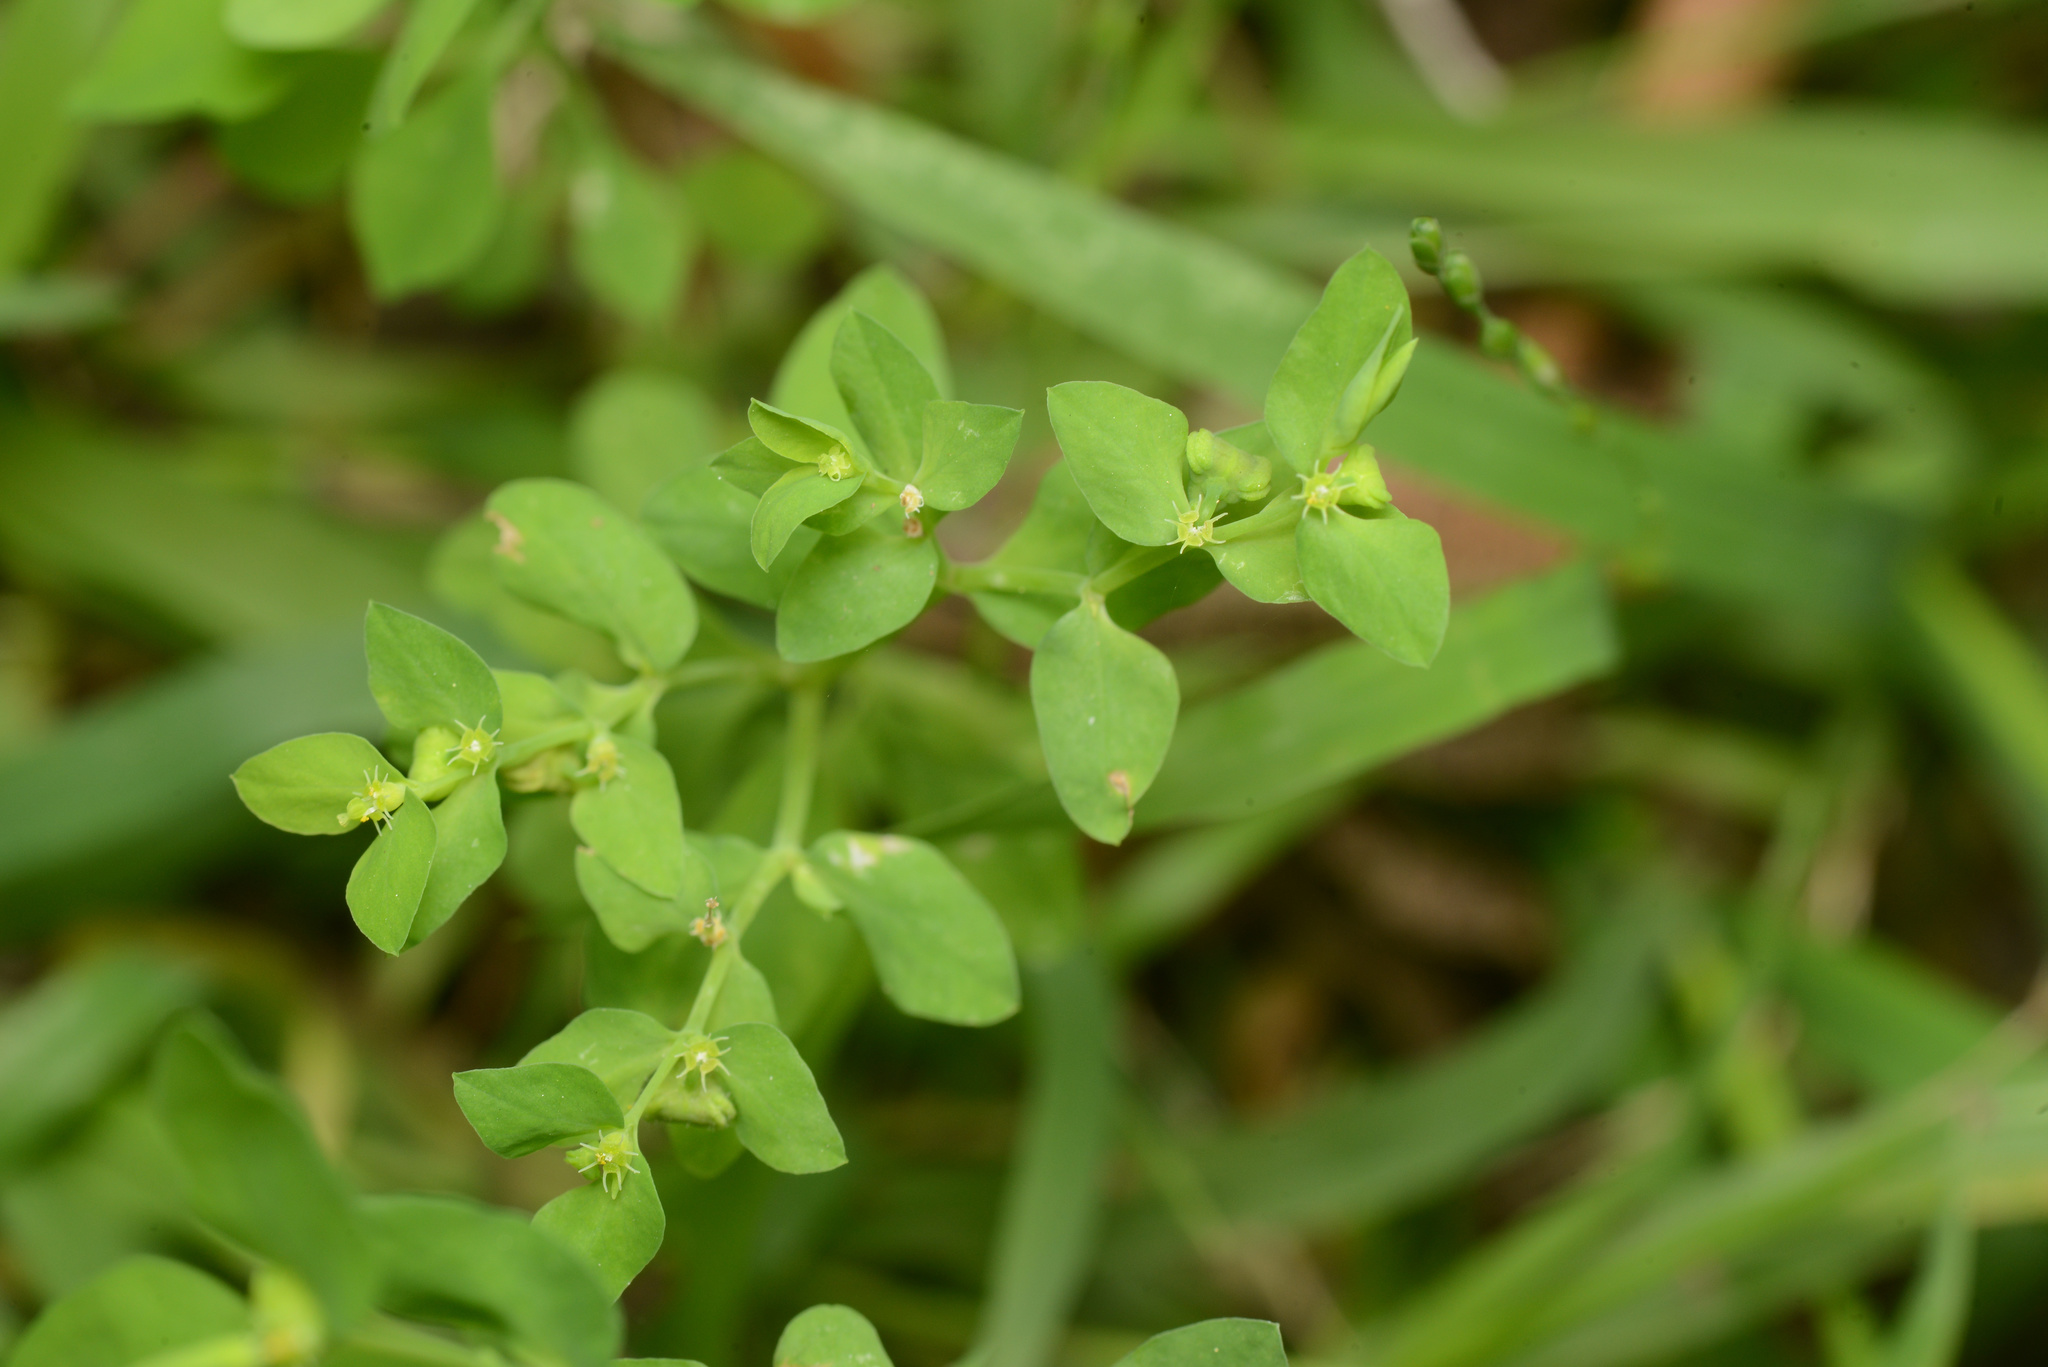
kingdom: Plantae
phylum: Tracheophyta
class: Magnoliopsida
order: Malpighiales
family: Euphorbiaceae
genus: Euphorbia
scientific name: Euphorbia peplus
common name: Petty spurge
